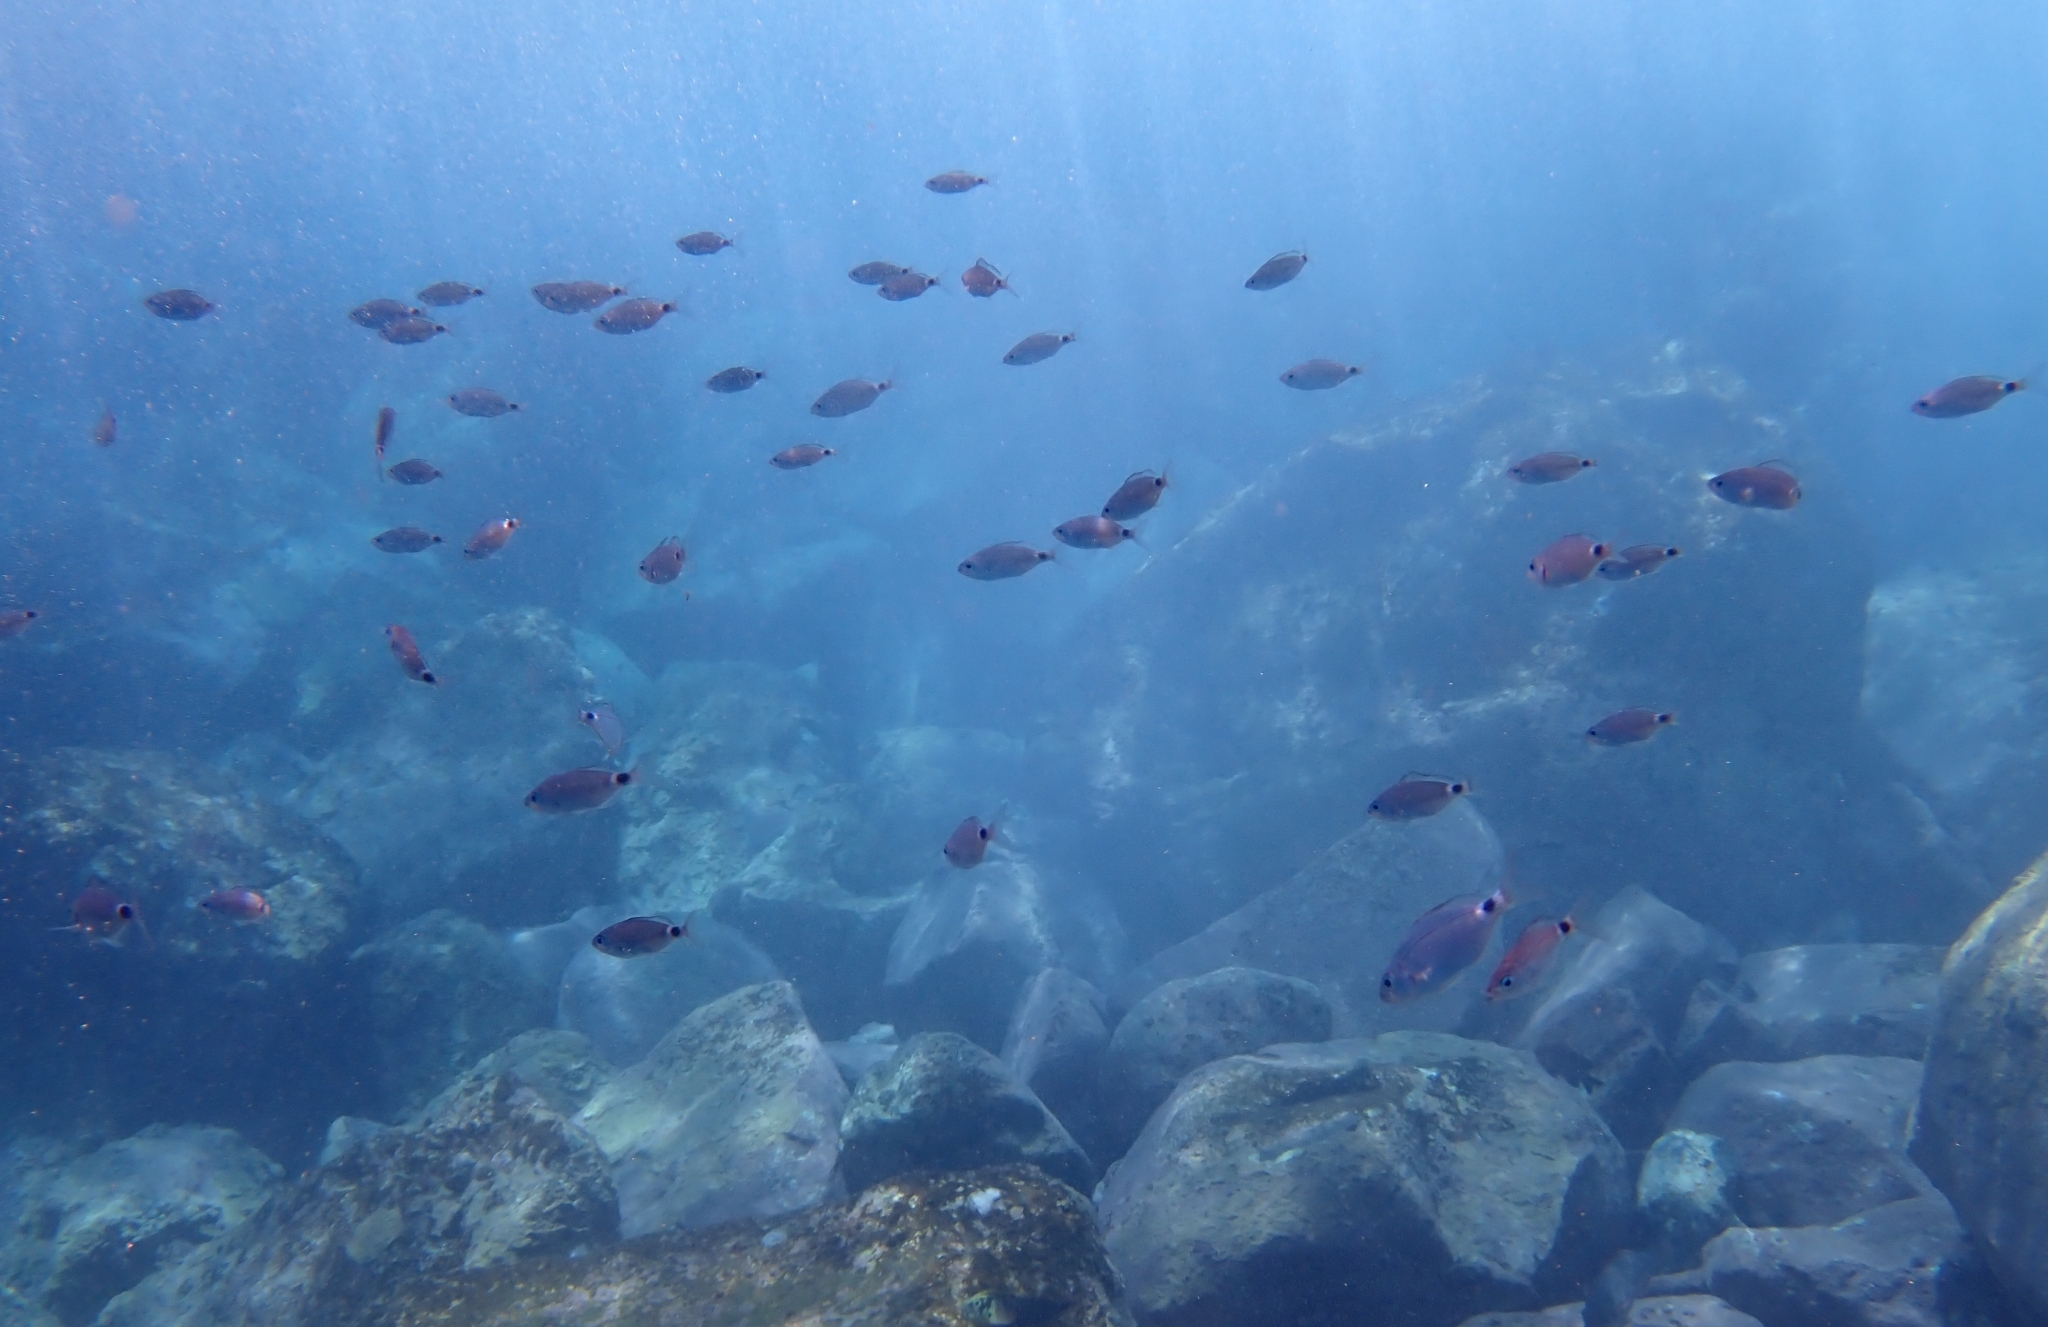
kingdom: Animalia
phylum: Chordata
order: Perciformes
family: Sparidae
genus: Oblada
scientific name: Oblada melanura
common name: Saddled seabream
